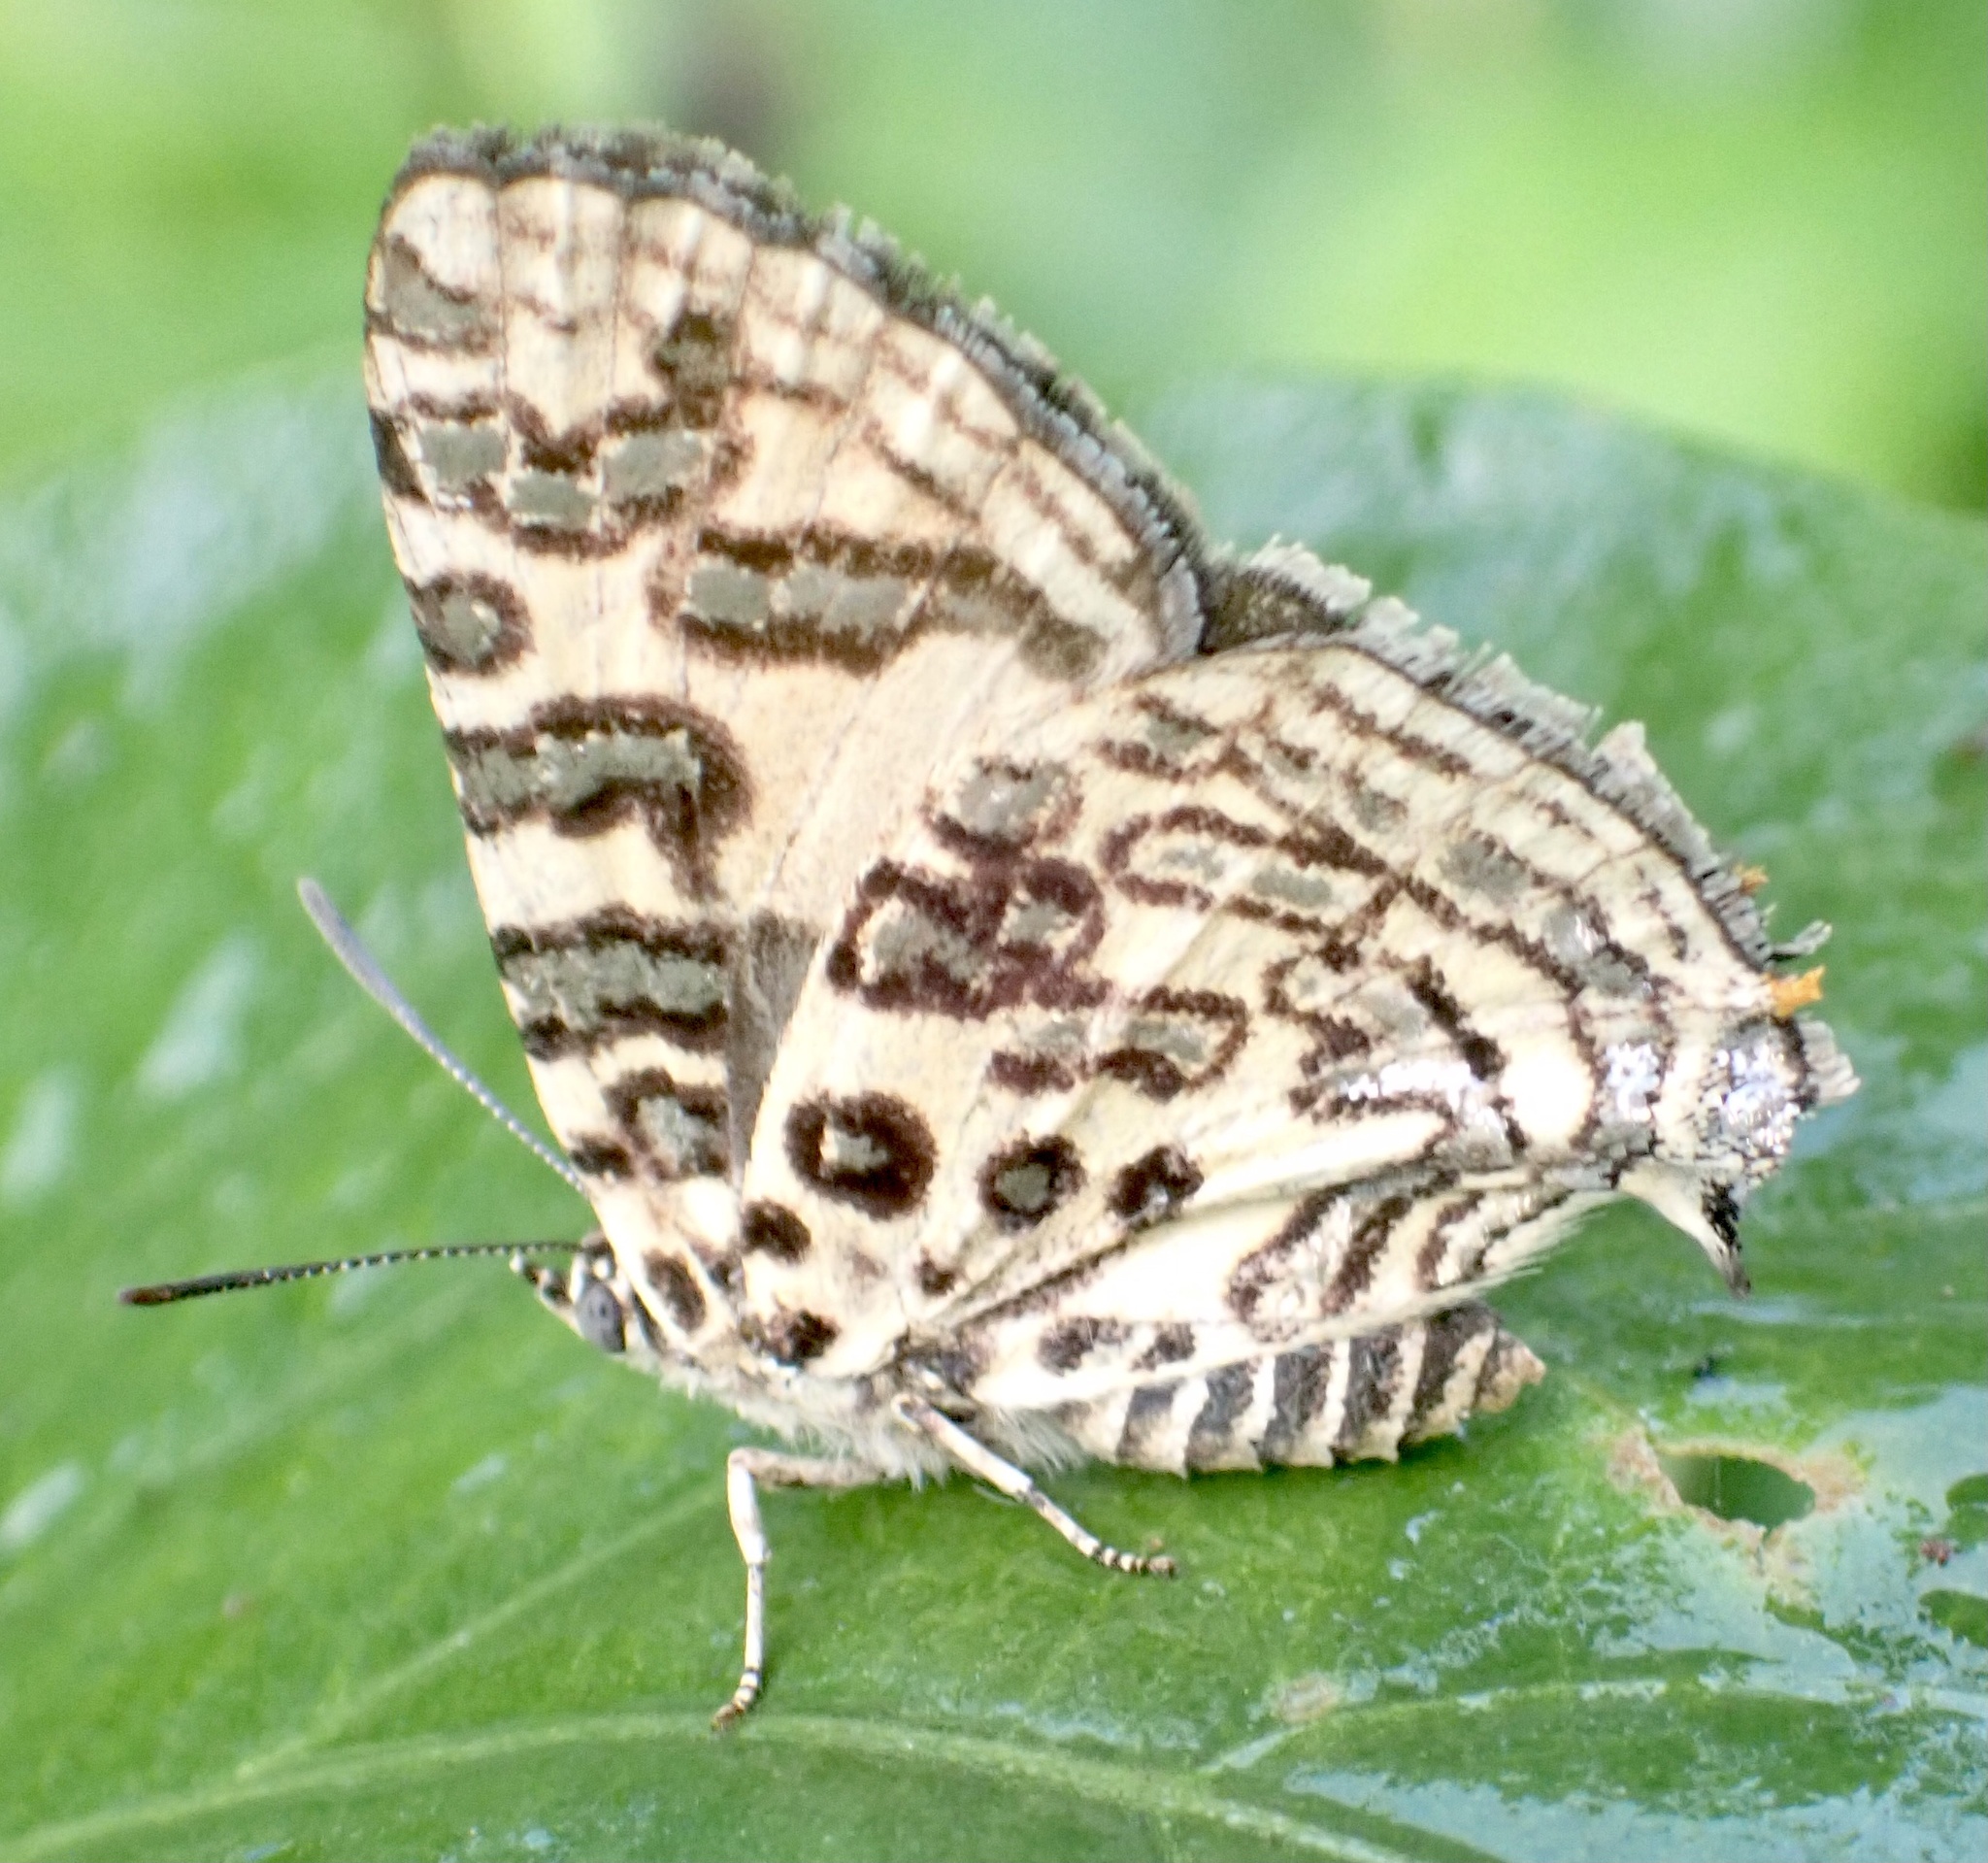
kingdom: Animalia
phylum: Arthropoda
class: Insecta
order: Lepidoptera
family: Lycaenidae
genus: Cigaritis
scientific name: Cigaritis
